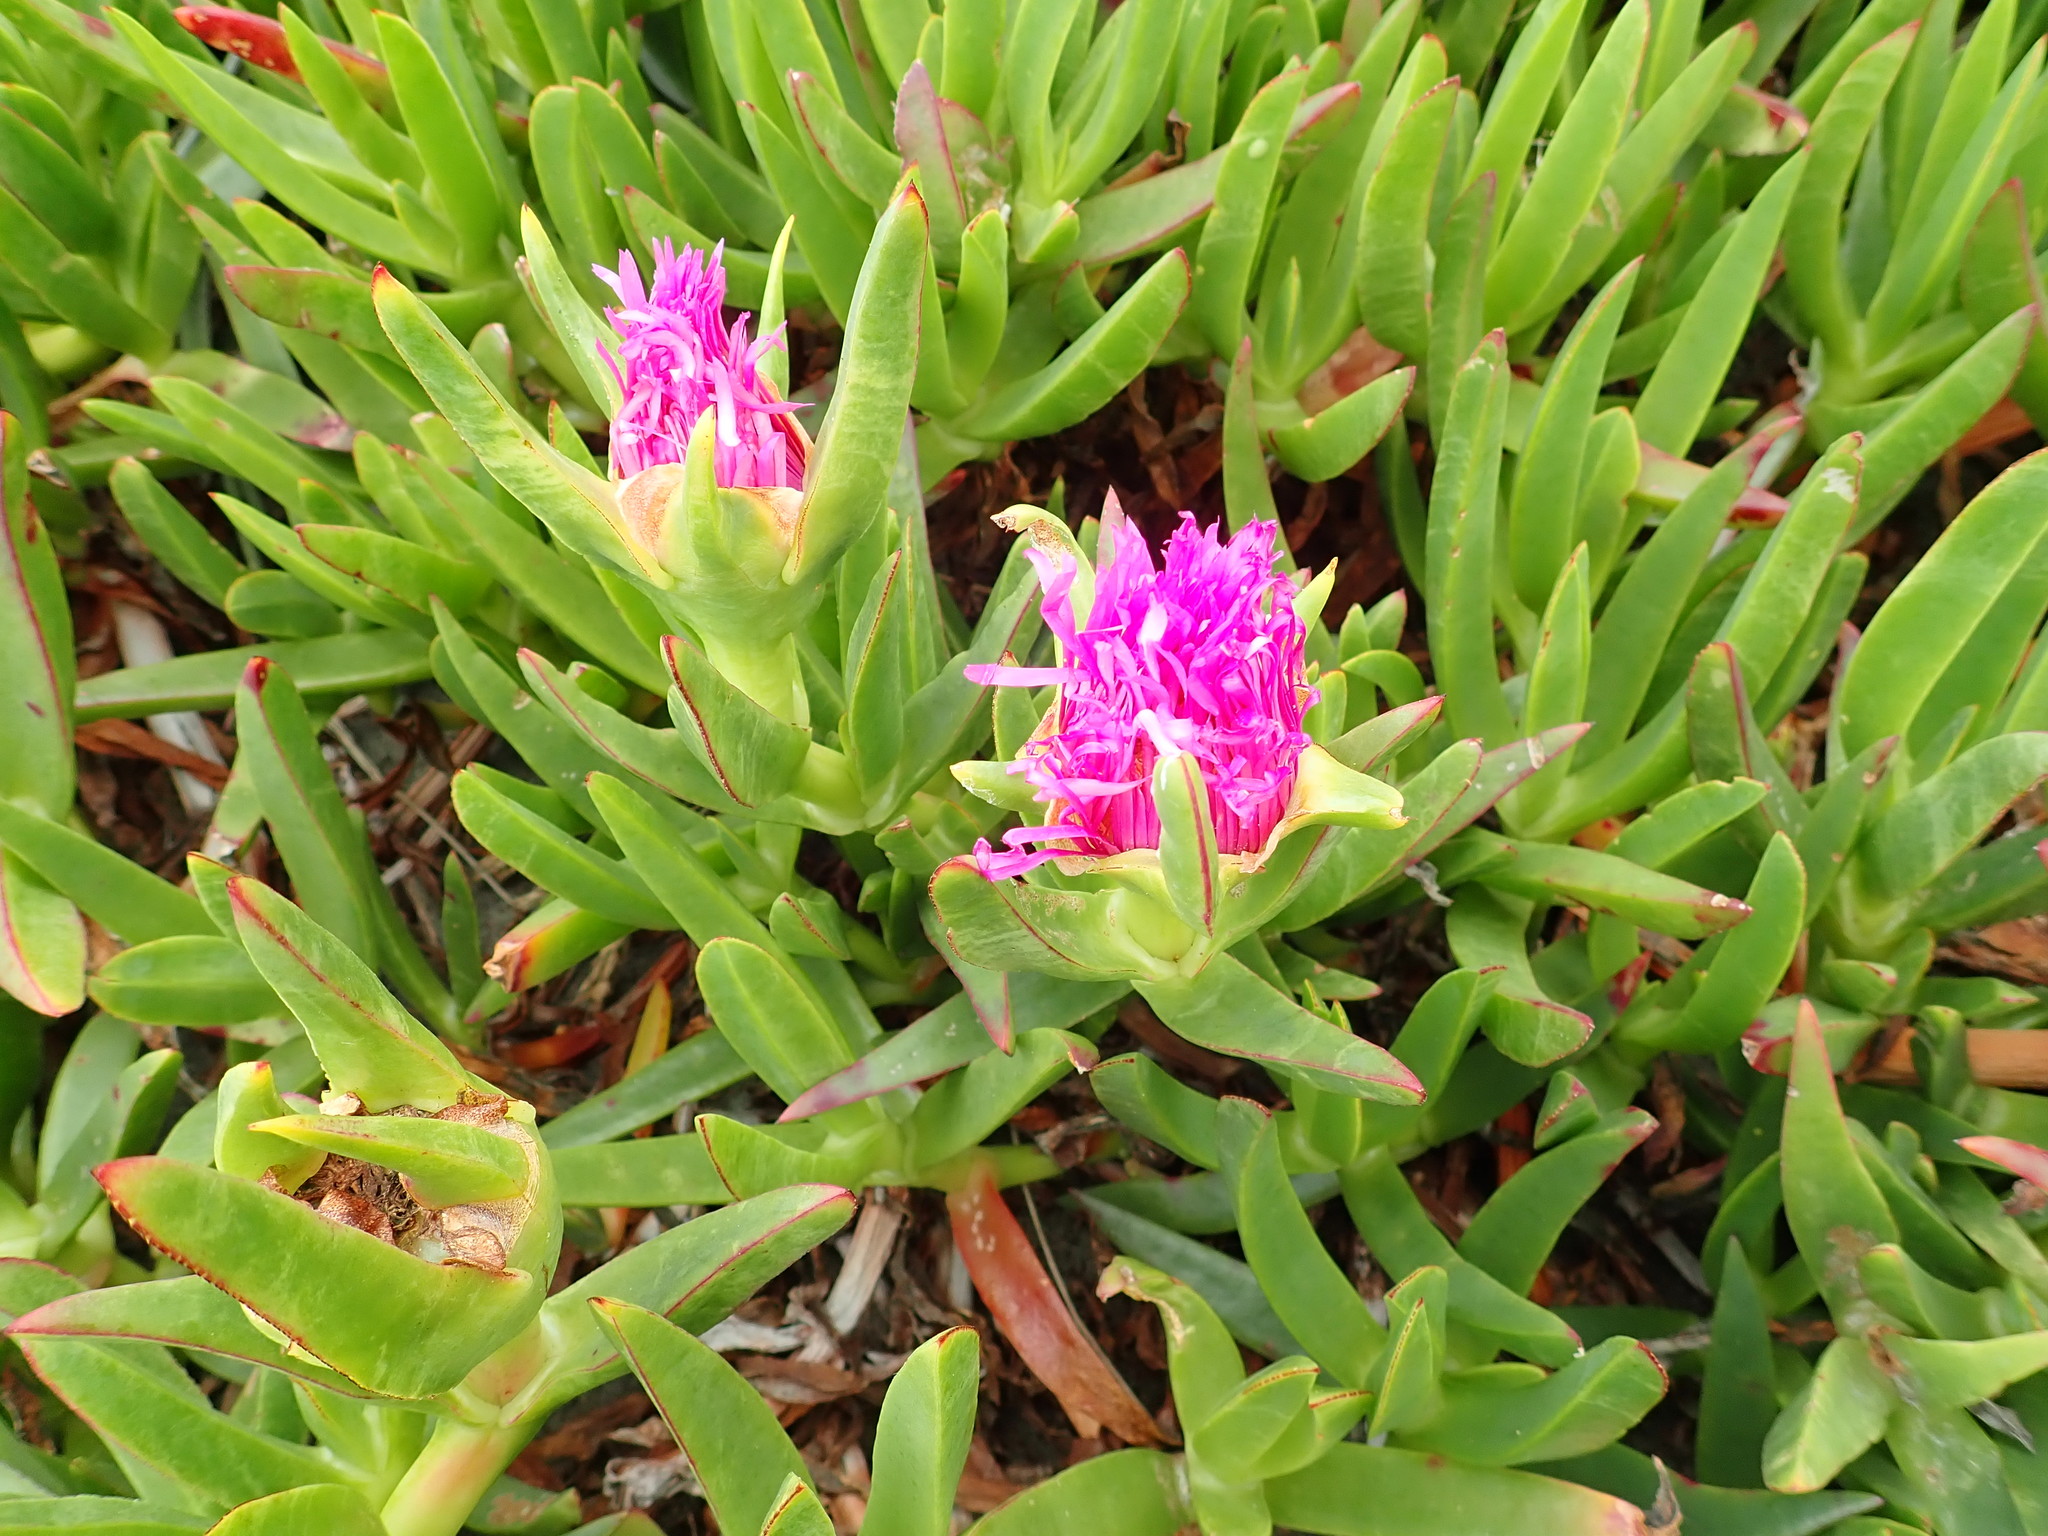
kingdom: Plantae
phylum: Tracheophyta
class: Magnoliopsida
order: Caryophyllales
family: Aizoaceae
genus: Carpobrotus
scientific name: Carpobrotus chilensis
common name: Sea fig
